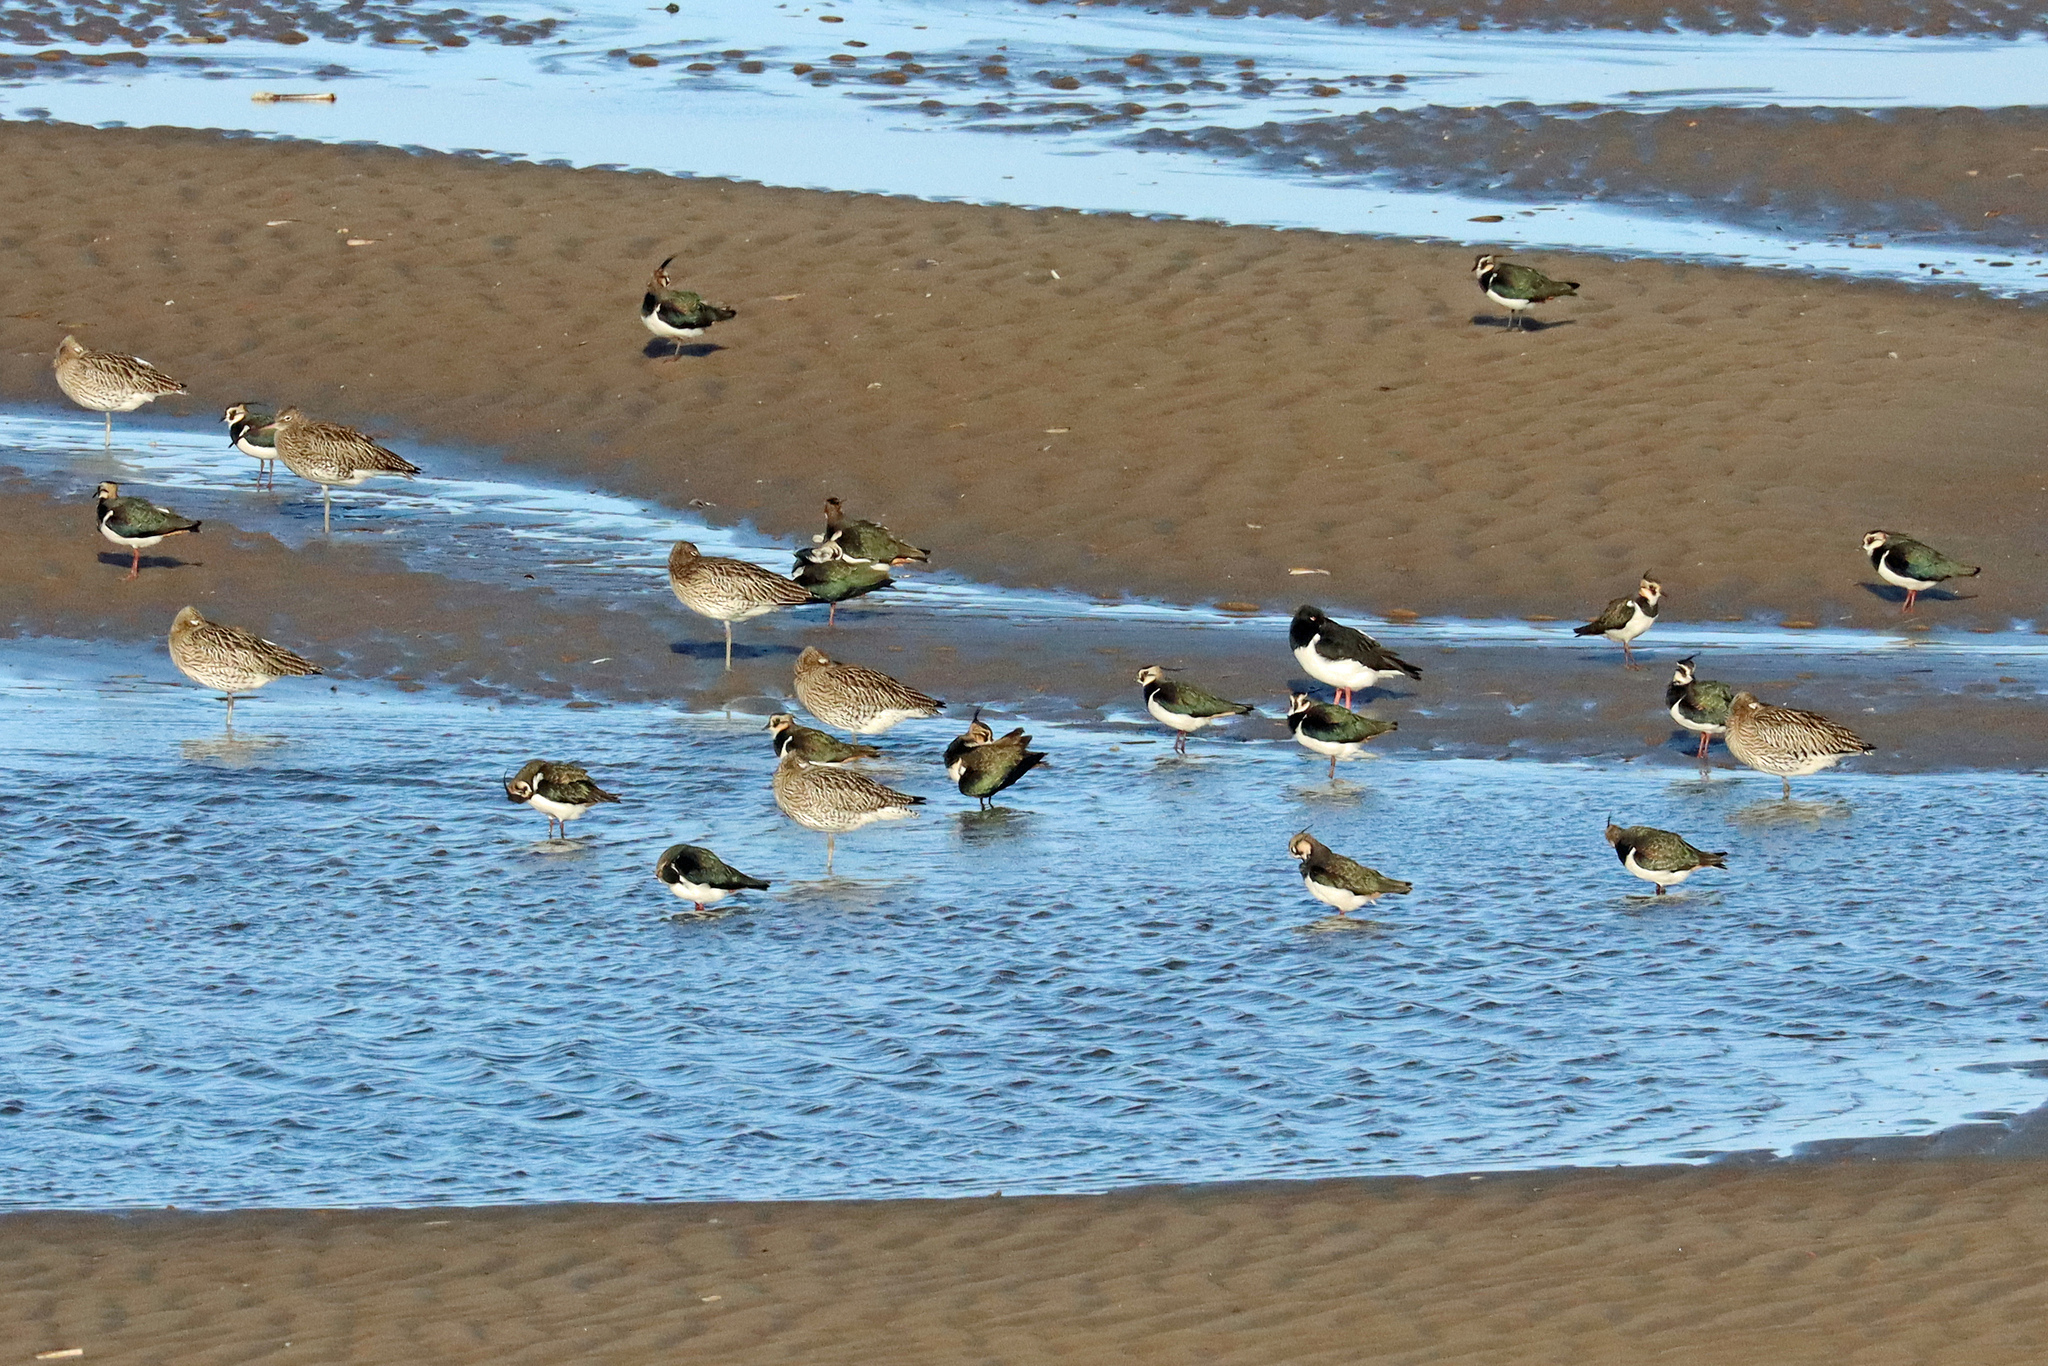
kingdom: Animalia
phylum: Chordata
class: Aves
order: Charadriiformes
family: Charadriidae
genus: Vanellus
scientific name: Vanellus vanellus
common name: Northern lapwing
